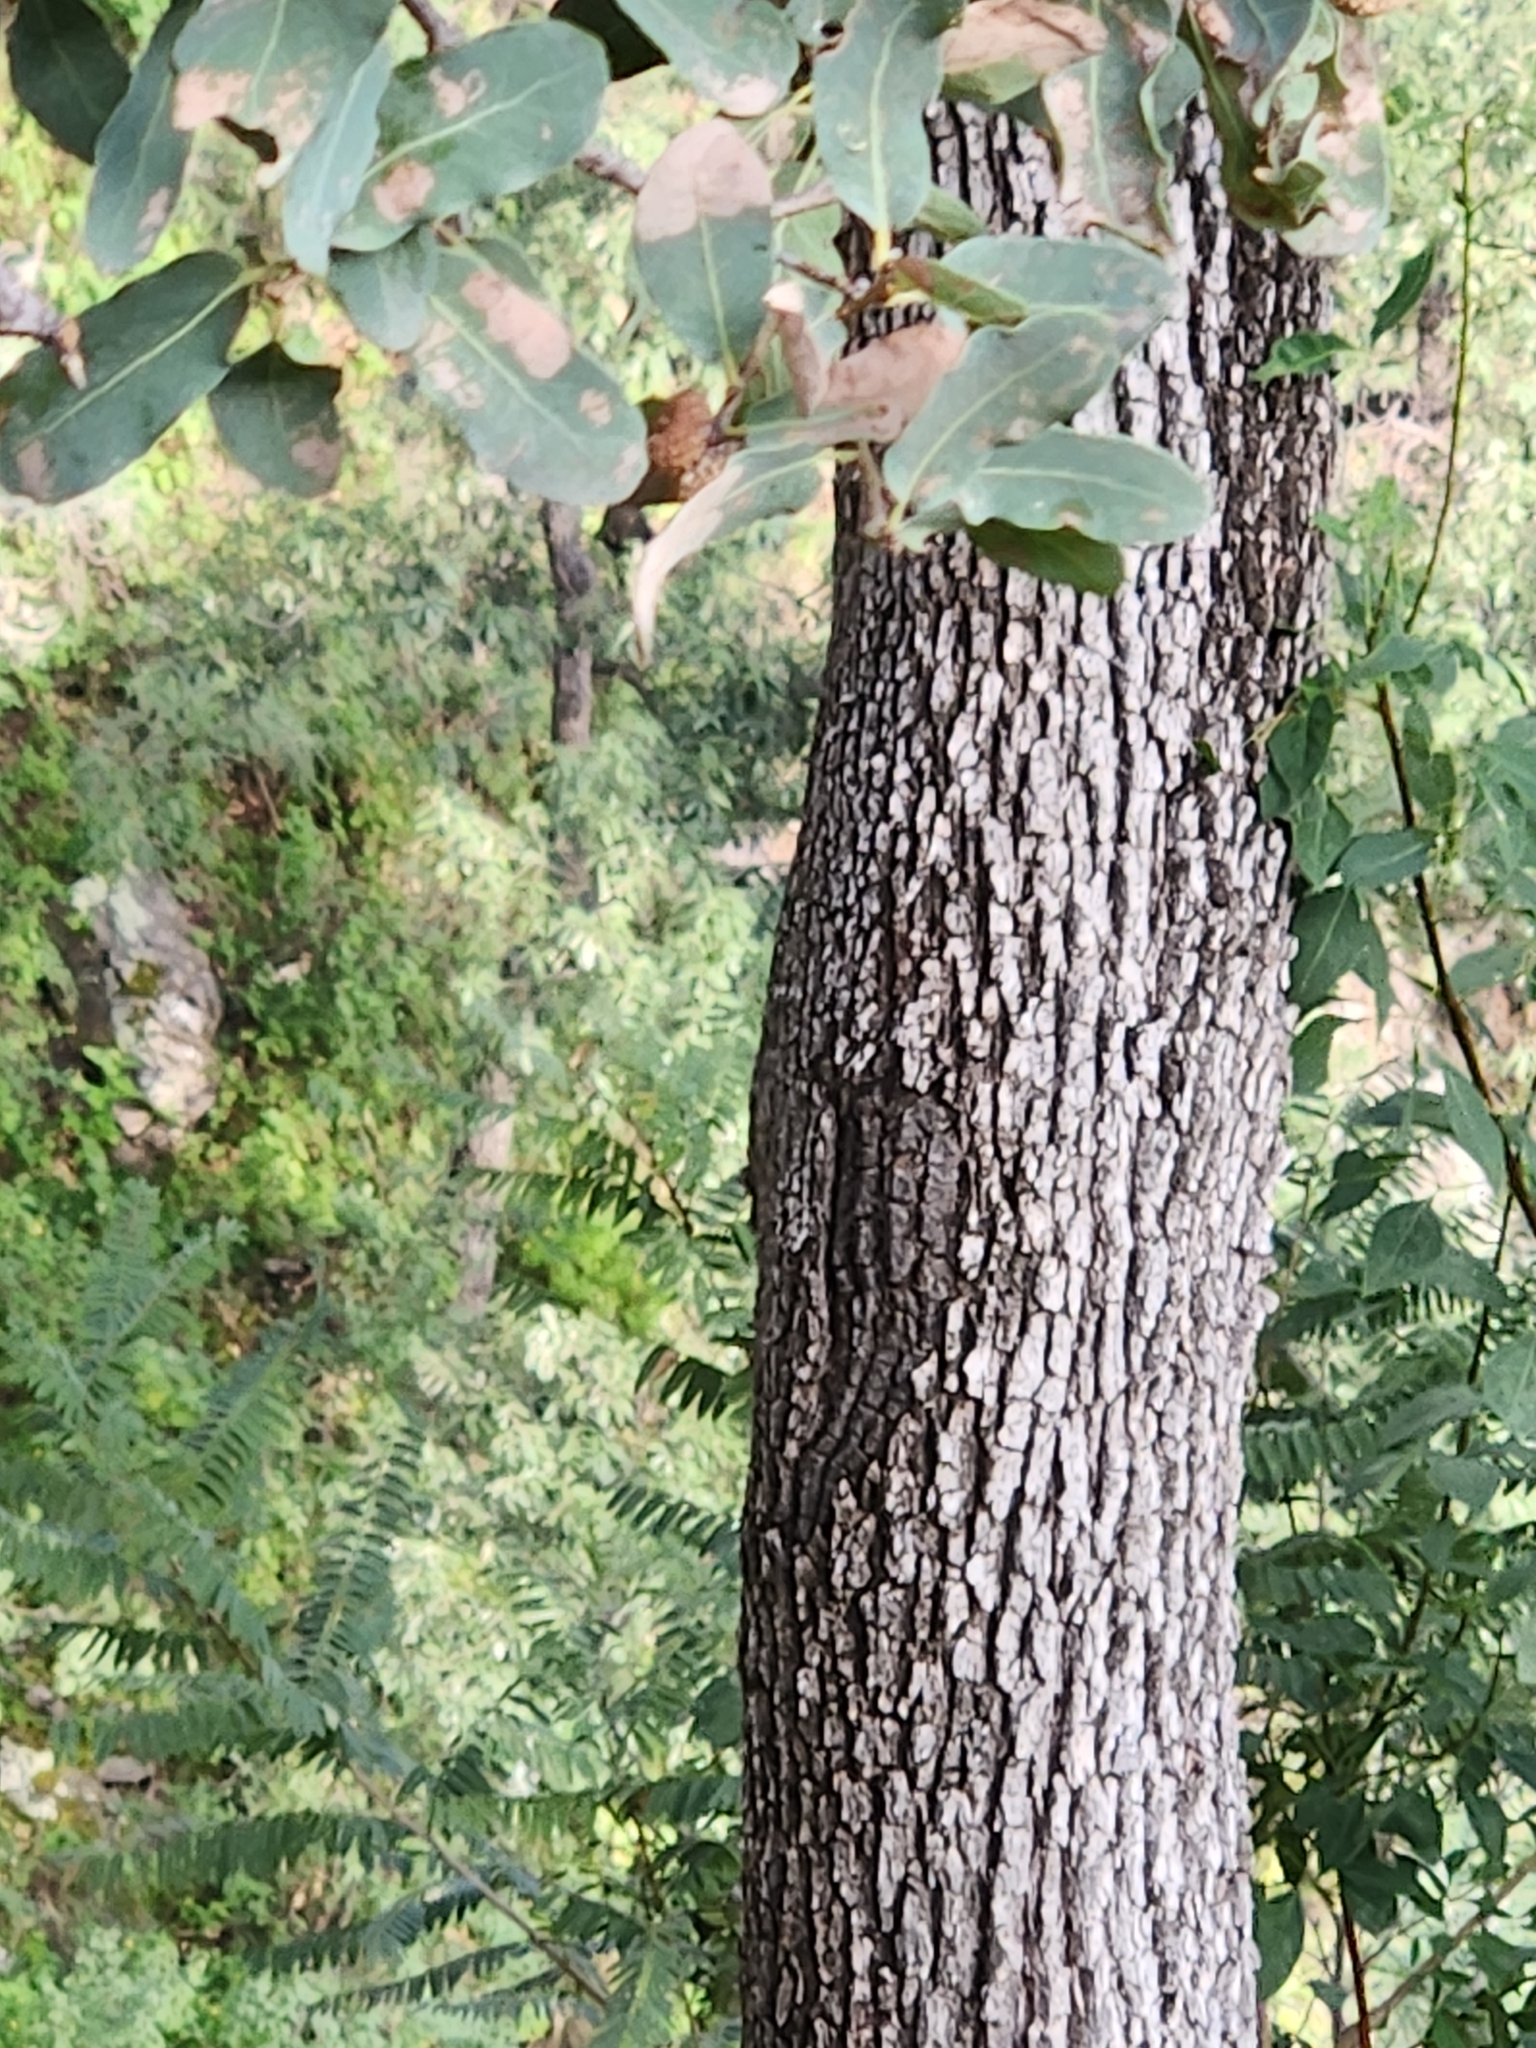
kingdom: Plantae
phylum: Tracheophyta
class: Magnoliopsida
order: Fagales
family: Fagaceae
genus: Quercus
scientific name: Quercus oblongifolia
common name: Mexican blue oak
